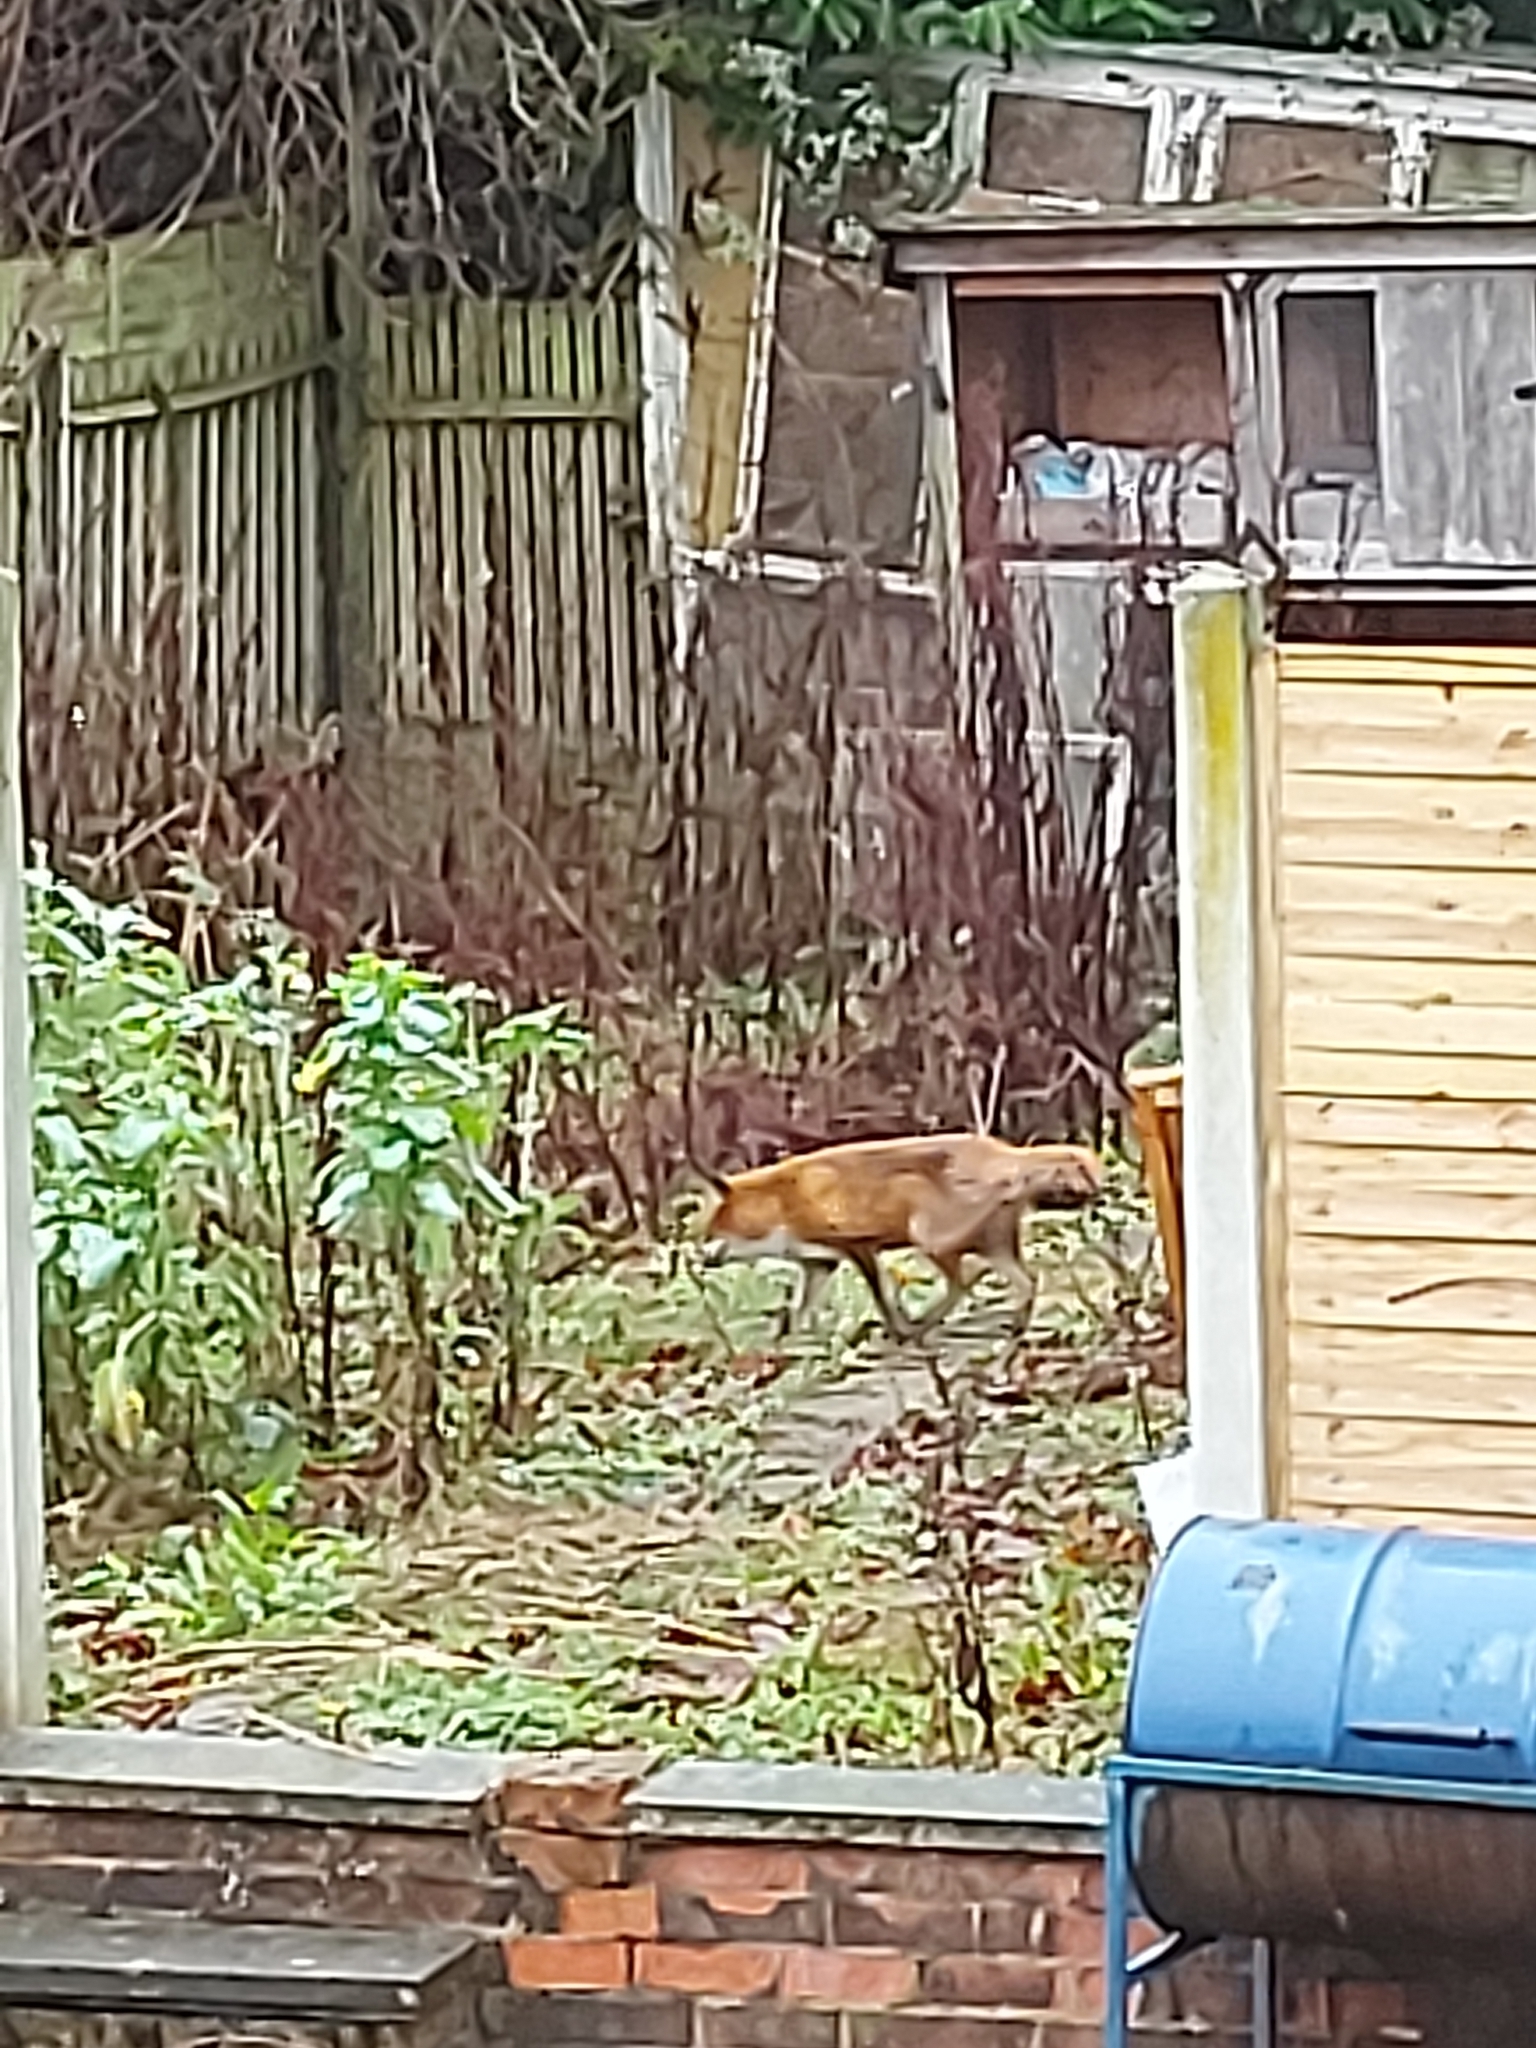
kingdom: Animalia
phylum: Chordata
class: Mammalia
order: Carnivora
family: Canidae
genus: Vulpes
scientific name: Vulpes vulpes
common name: Red fox
